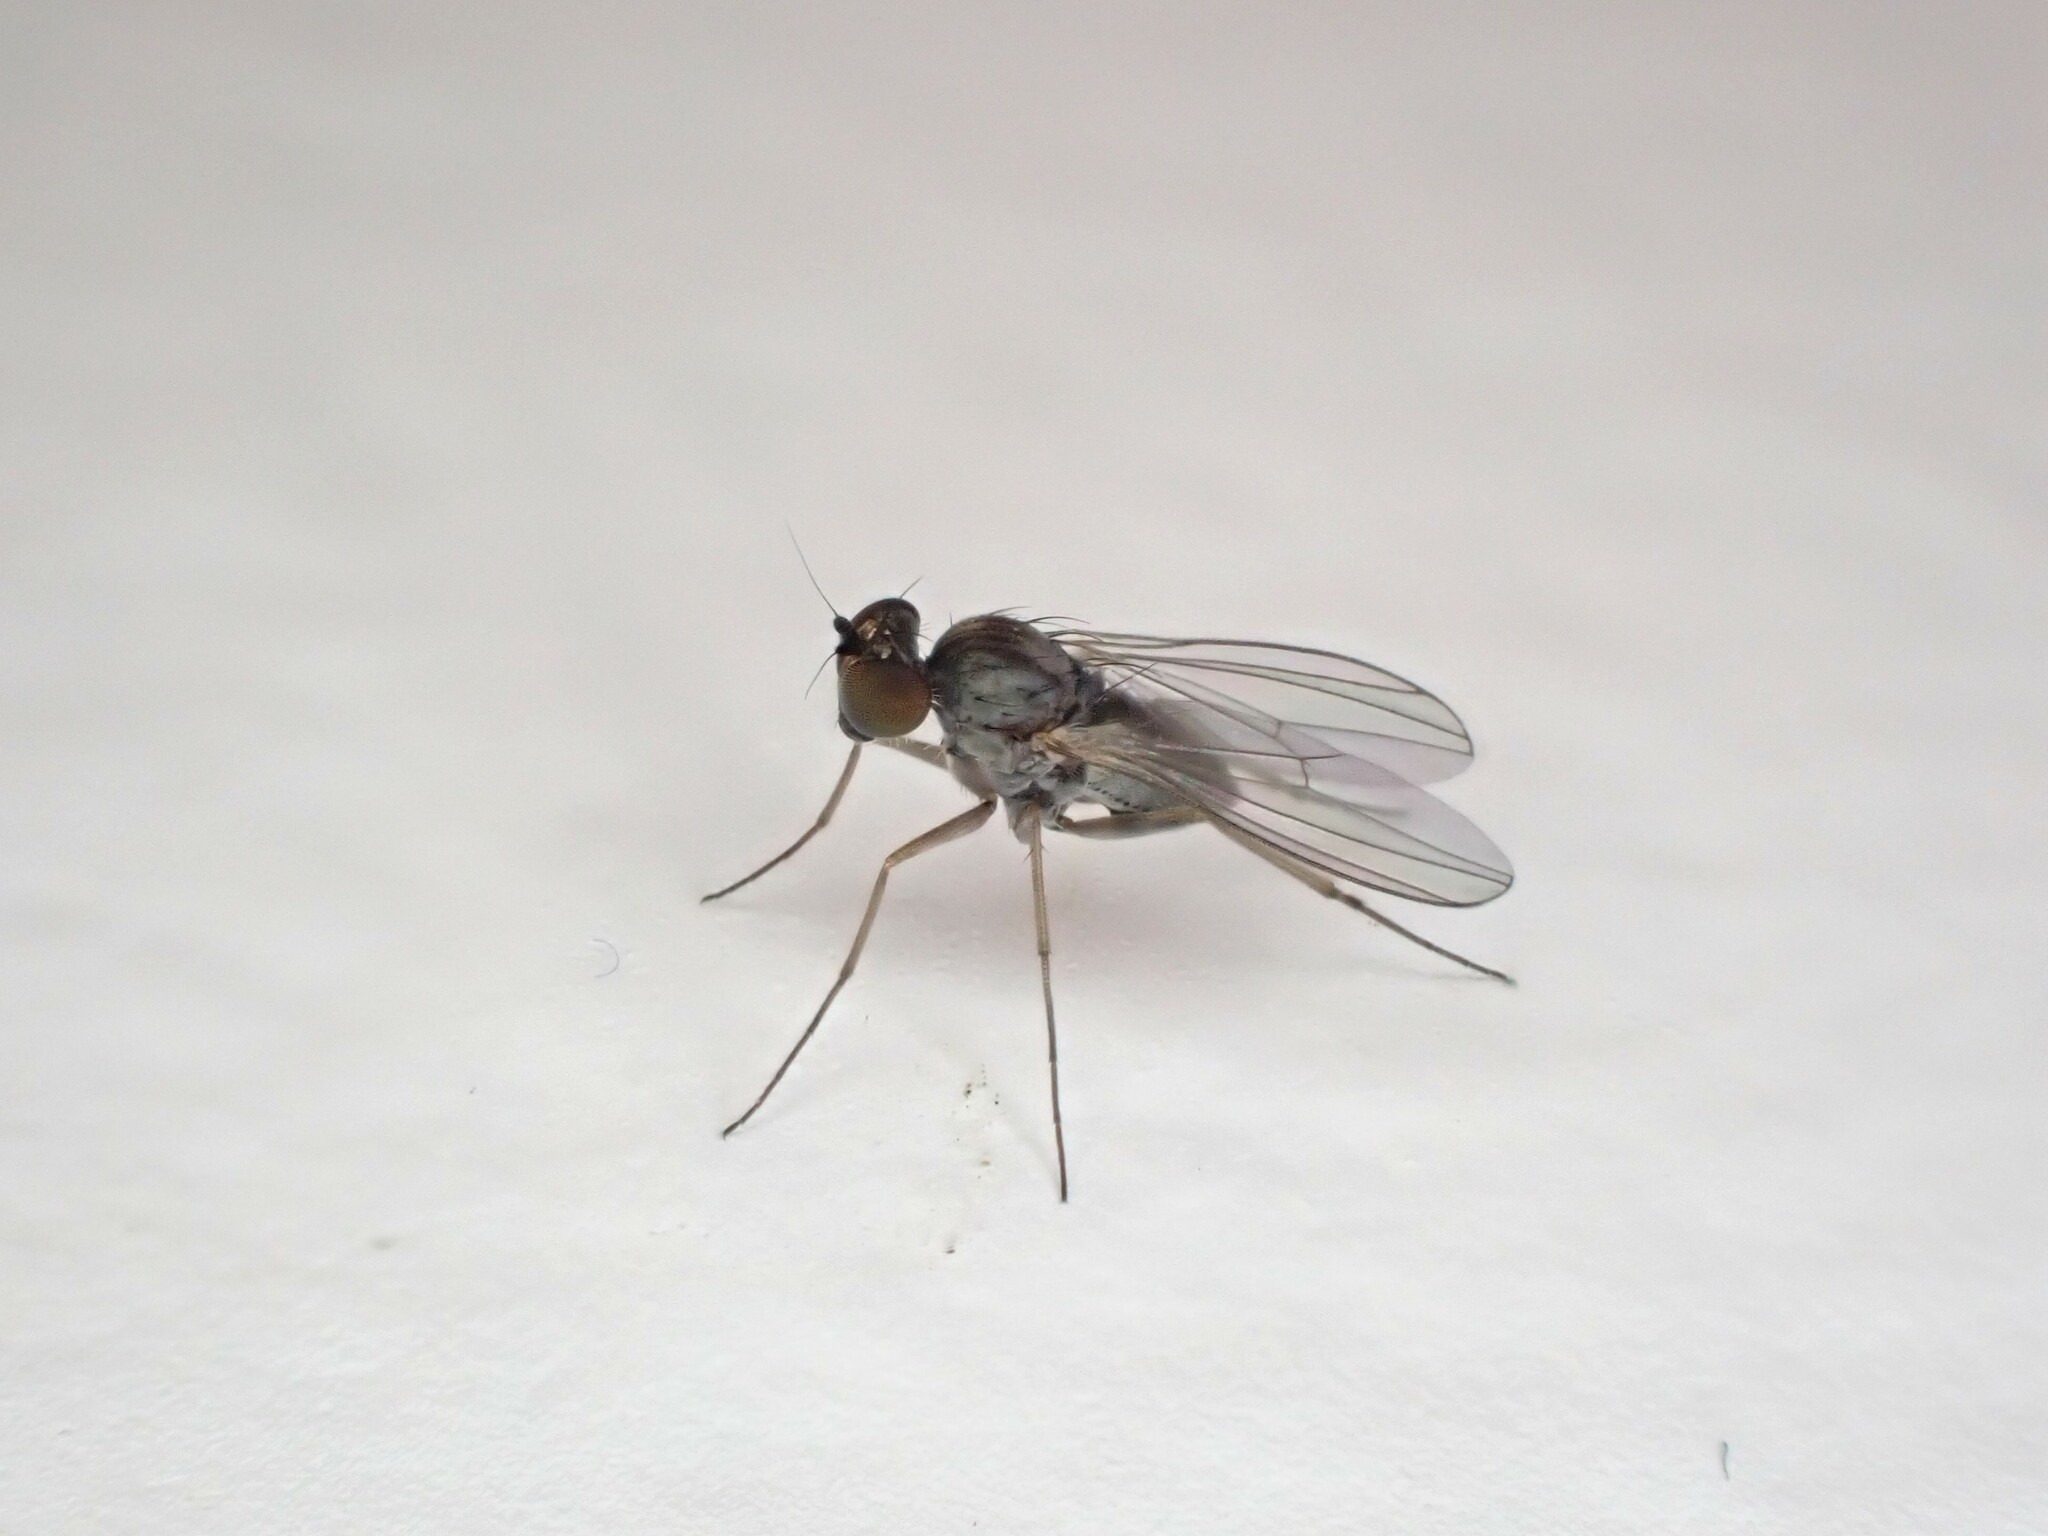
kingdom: Animalia
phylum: Arthropoda
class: Insecta
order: Diptera
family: Dolichopodidae
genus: Medetera
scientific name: Medetera grisescens
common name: Fly
